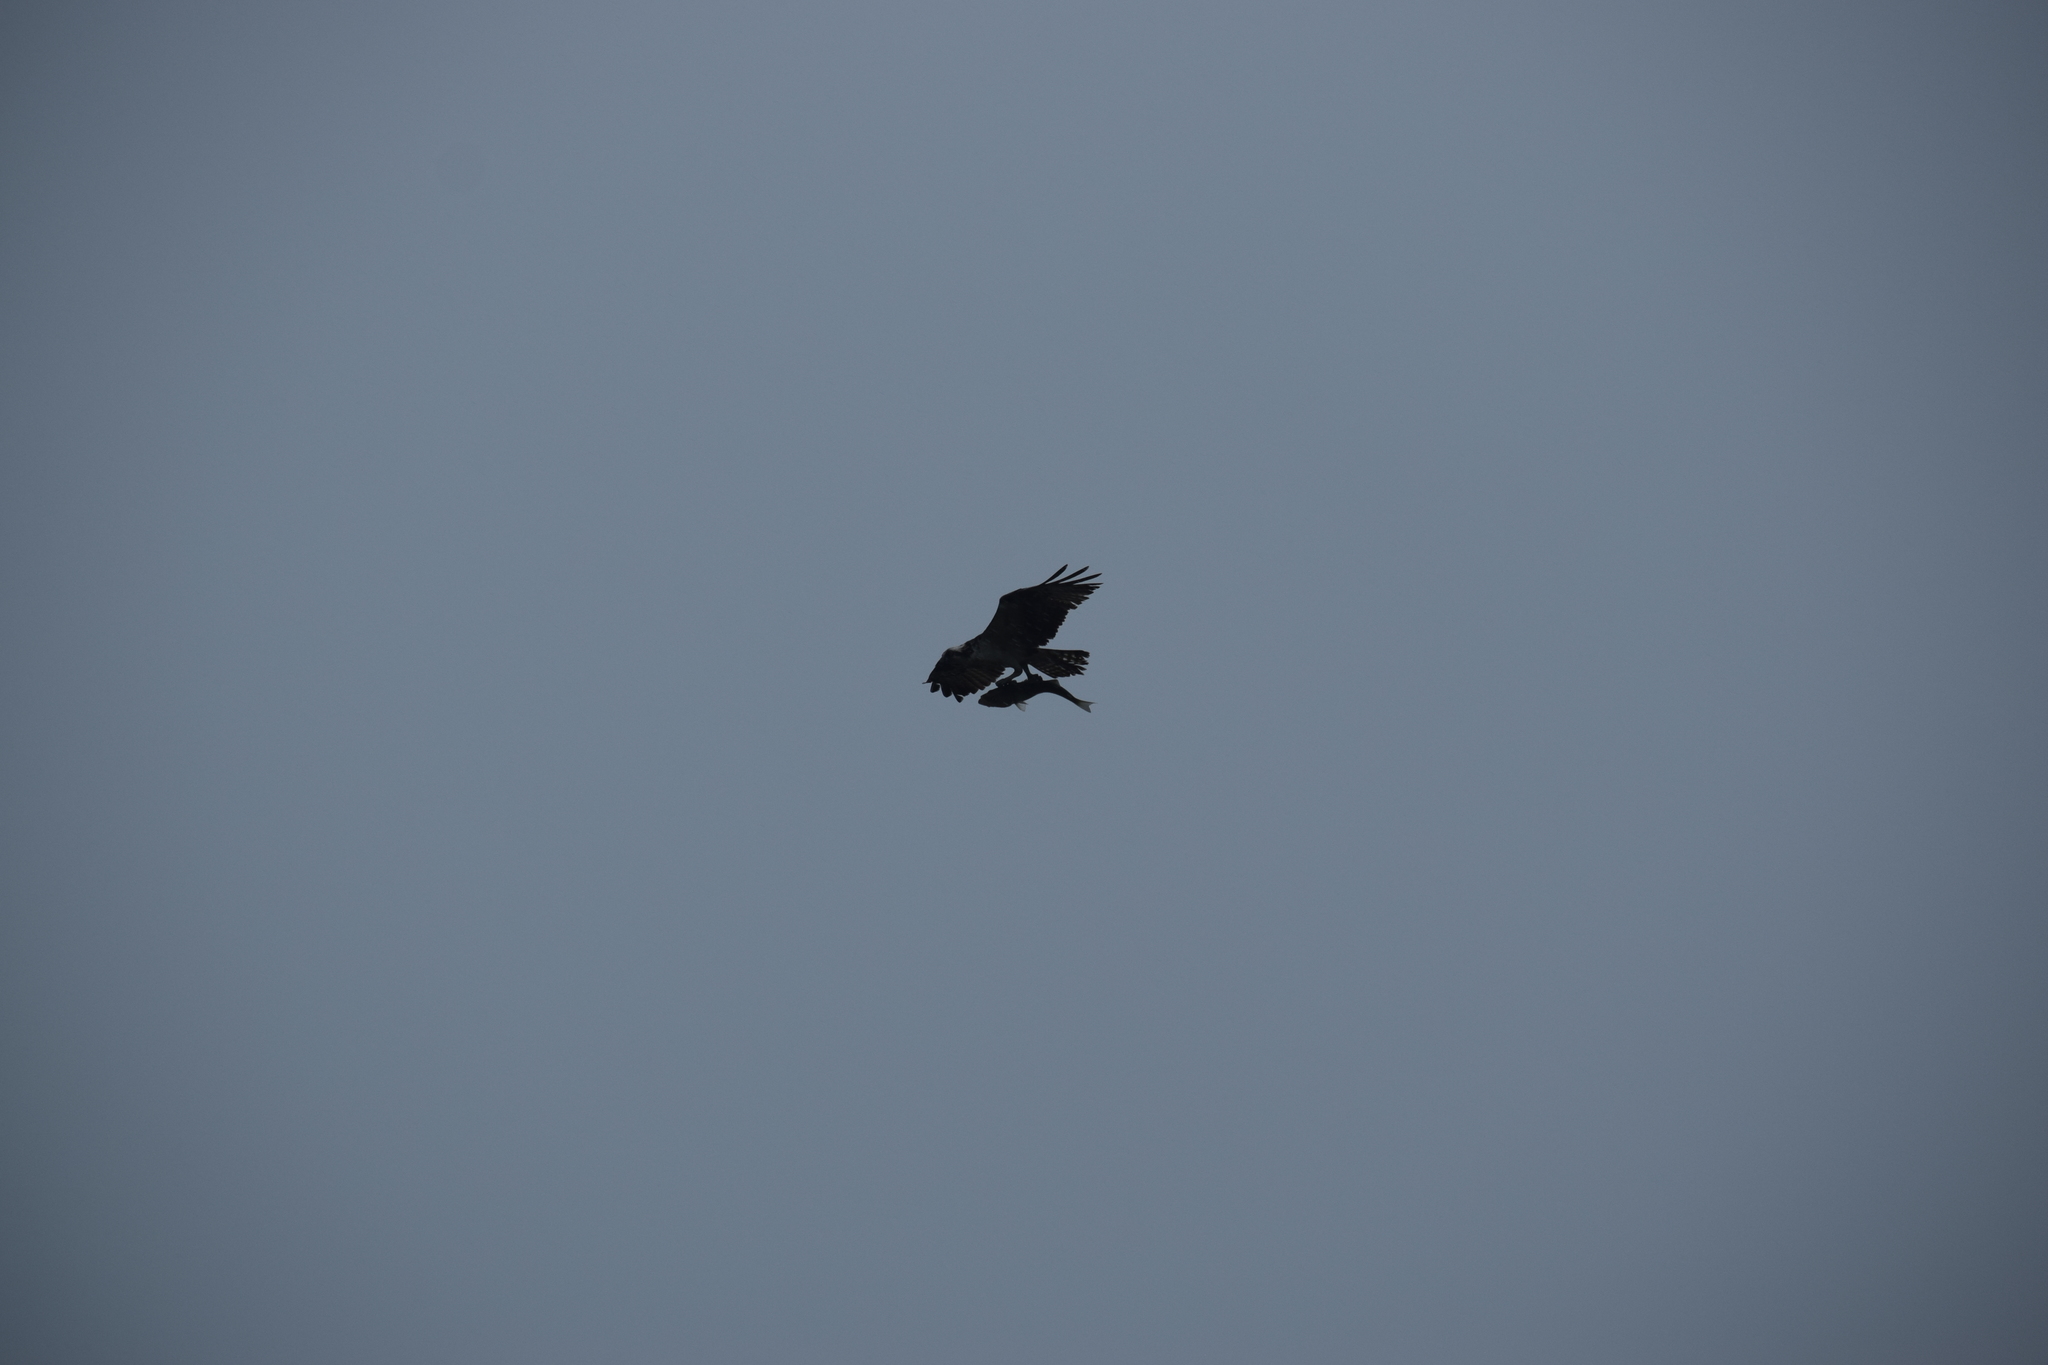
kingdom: Animalia
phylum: Chordata
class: Aves
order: Accipitriformes
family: Pandionidae
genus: Pandion
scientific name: Pandion haliaetus
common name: Osprey
